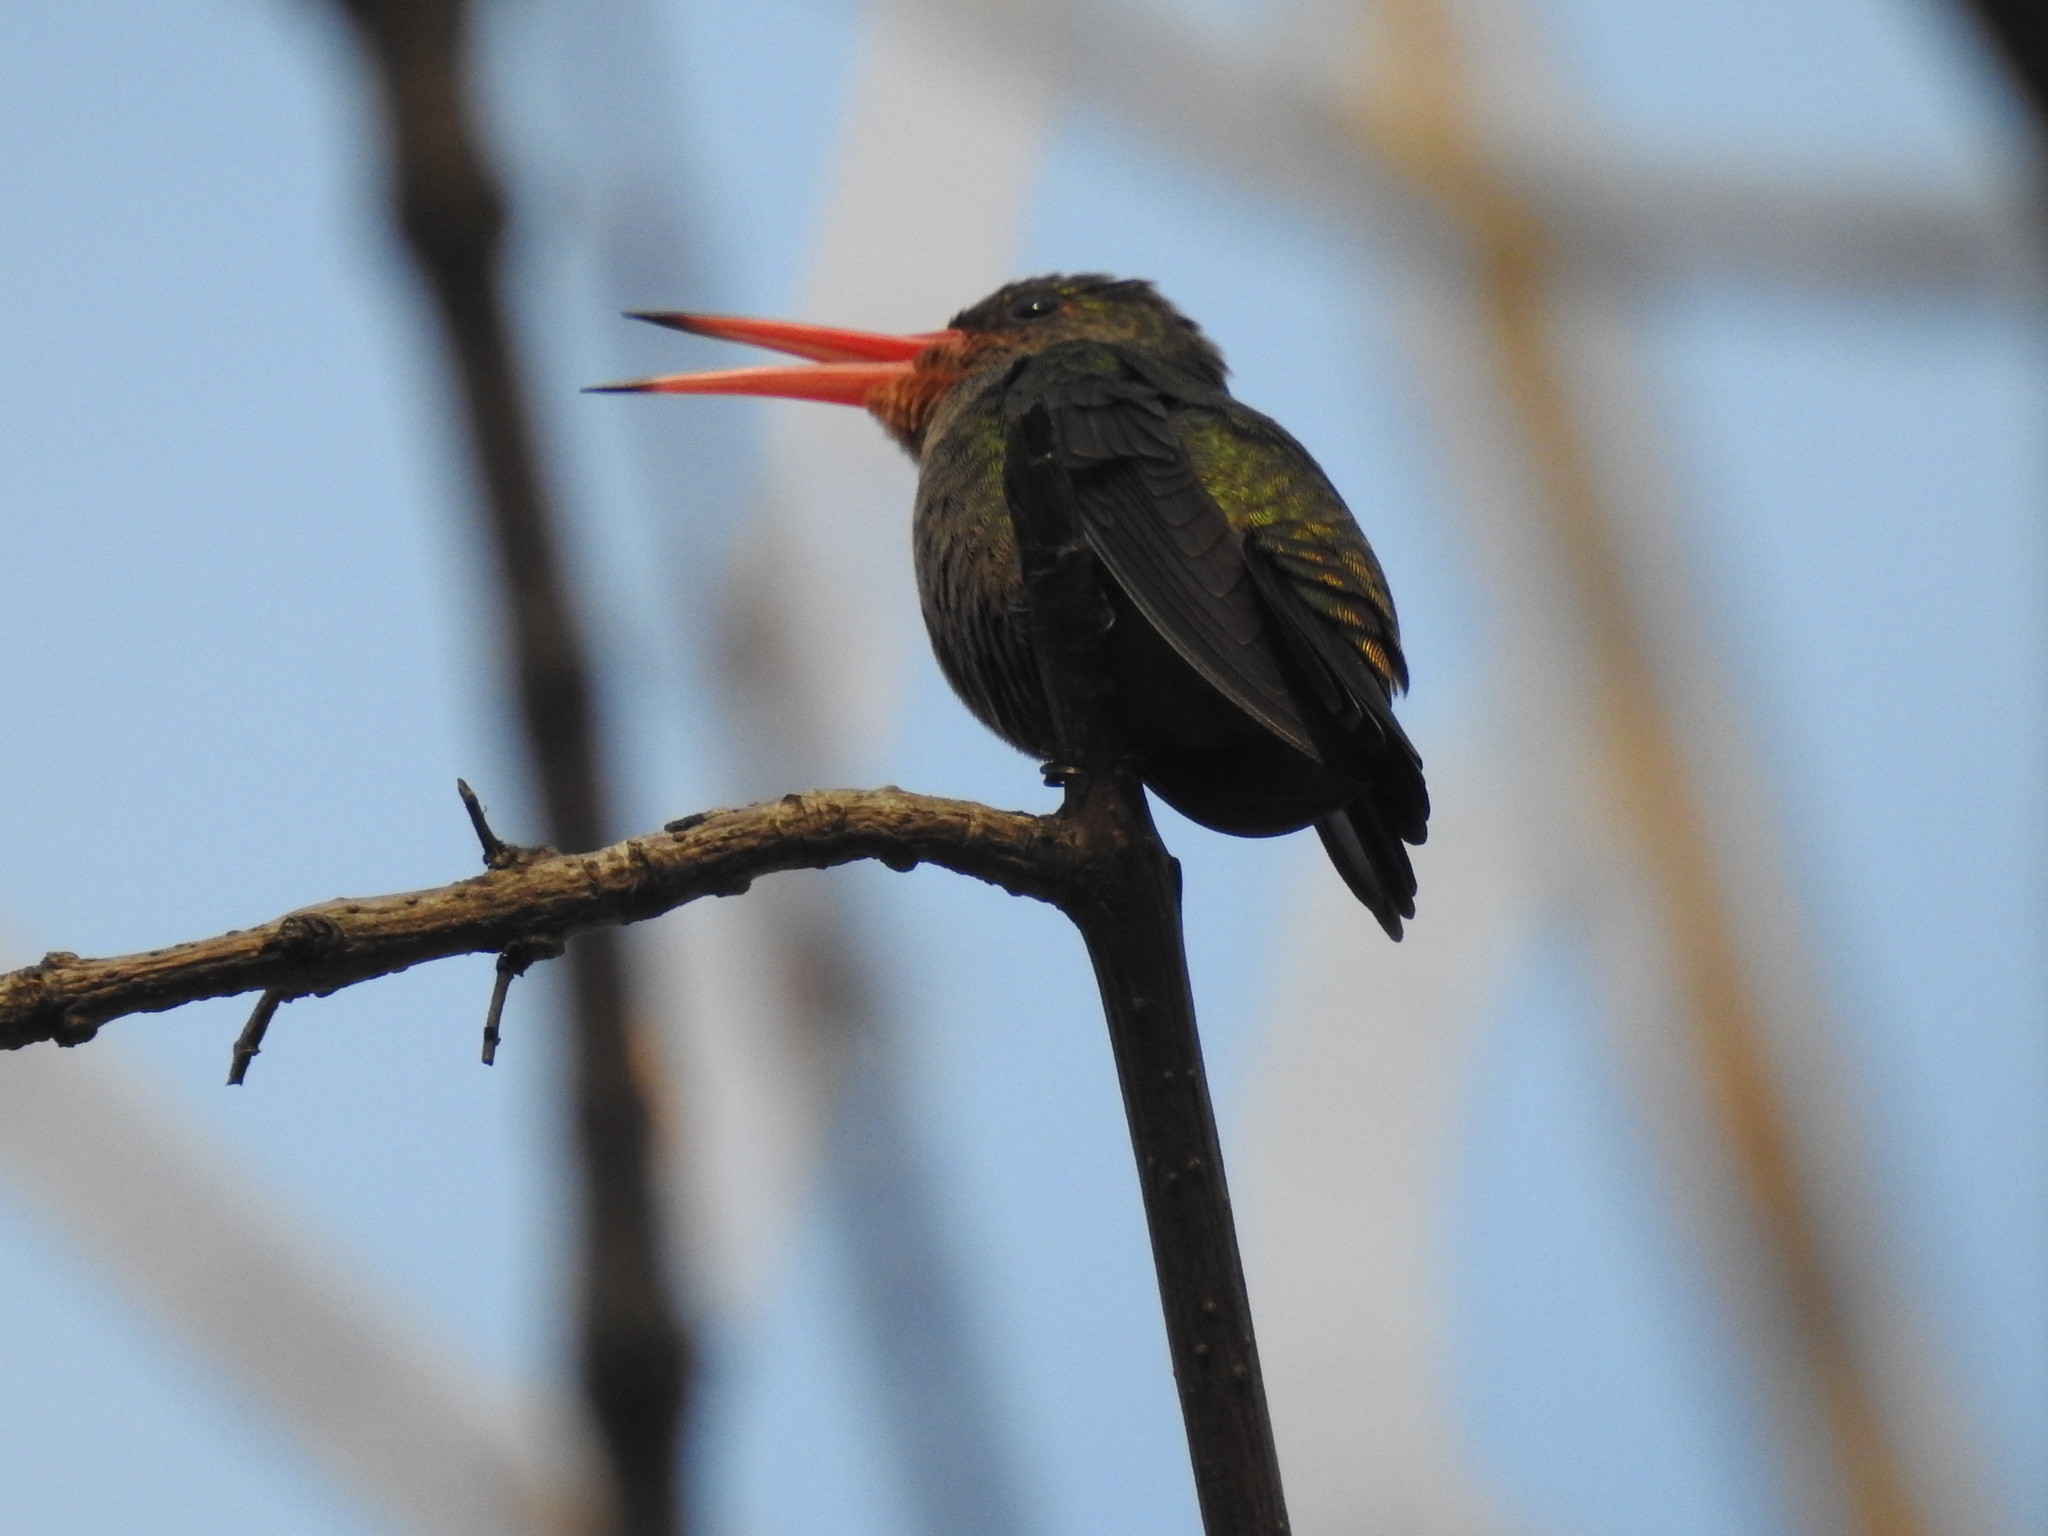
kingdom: Animalia
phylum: Chordata
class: Aves
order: Apodiformes
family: Trochilidae
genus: Hylocharis
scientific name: Hylocharis chrysura
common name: Gilded sapphire
